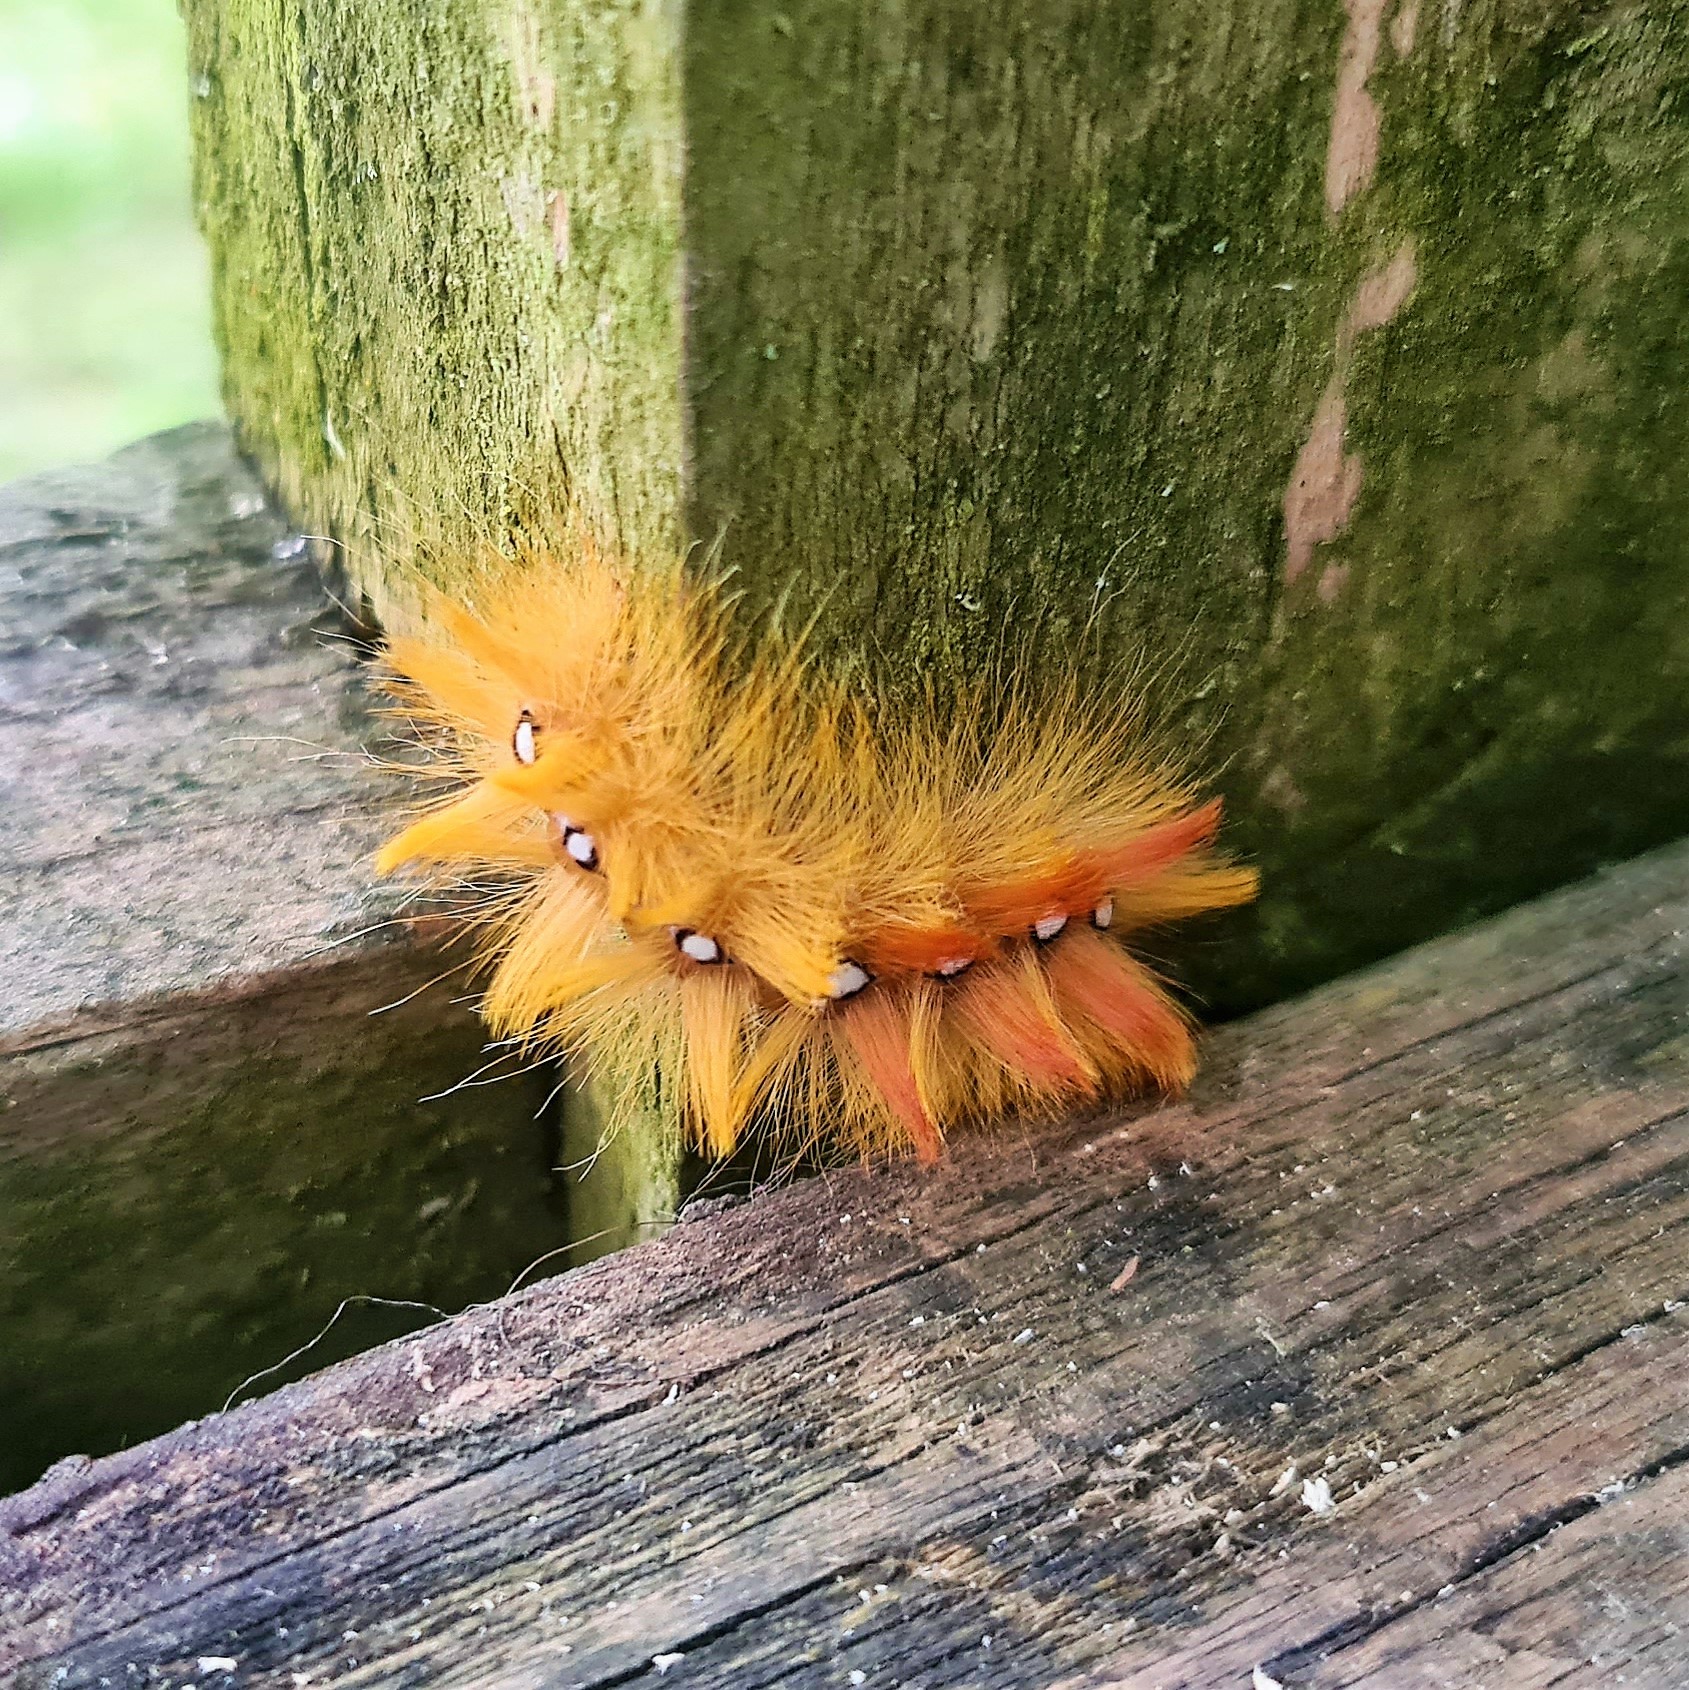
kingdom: Animalia
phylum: Arthropoda
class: Insecta
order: Lepidoptera
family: Noctuidae
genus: Acronicta
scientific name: Acronicta aceris
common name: Sycamore
